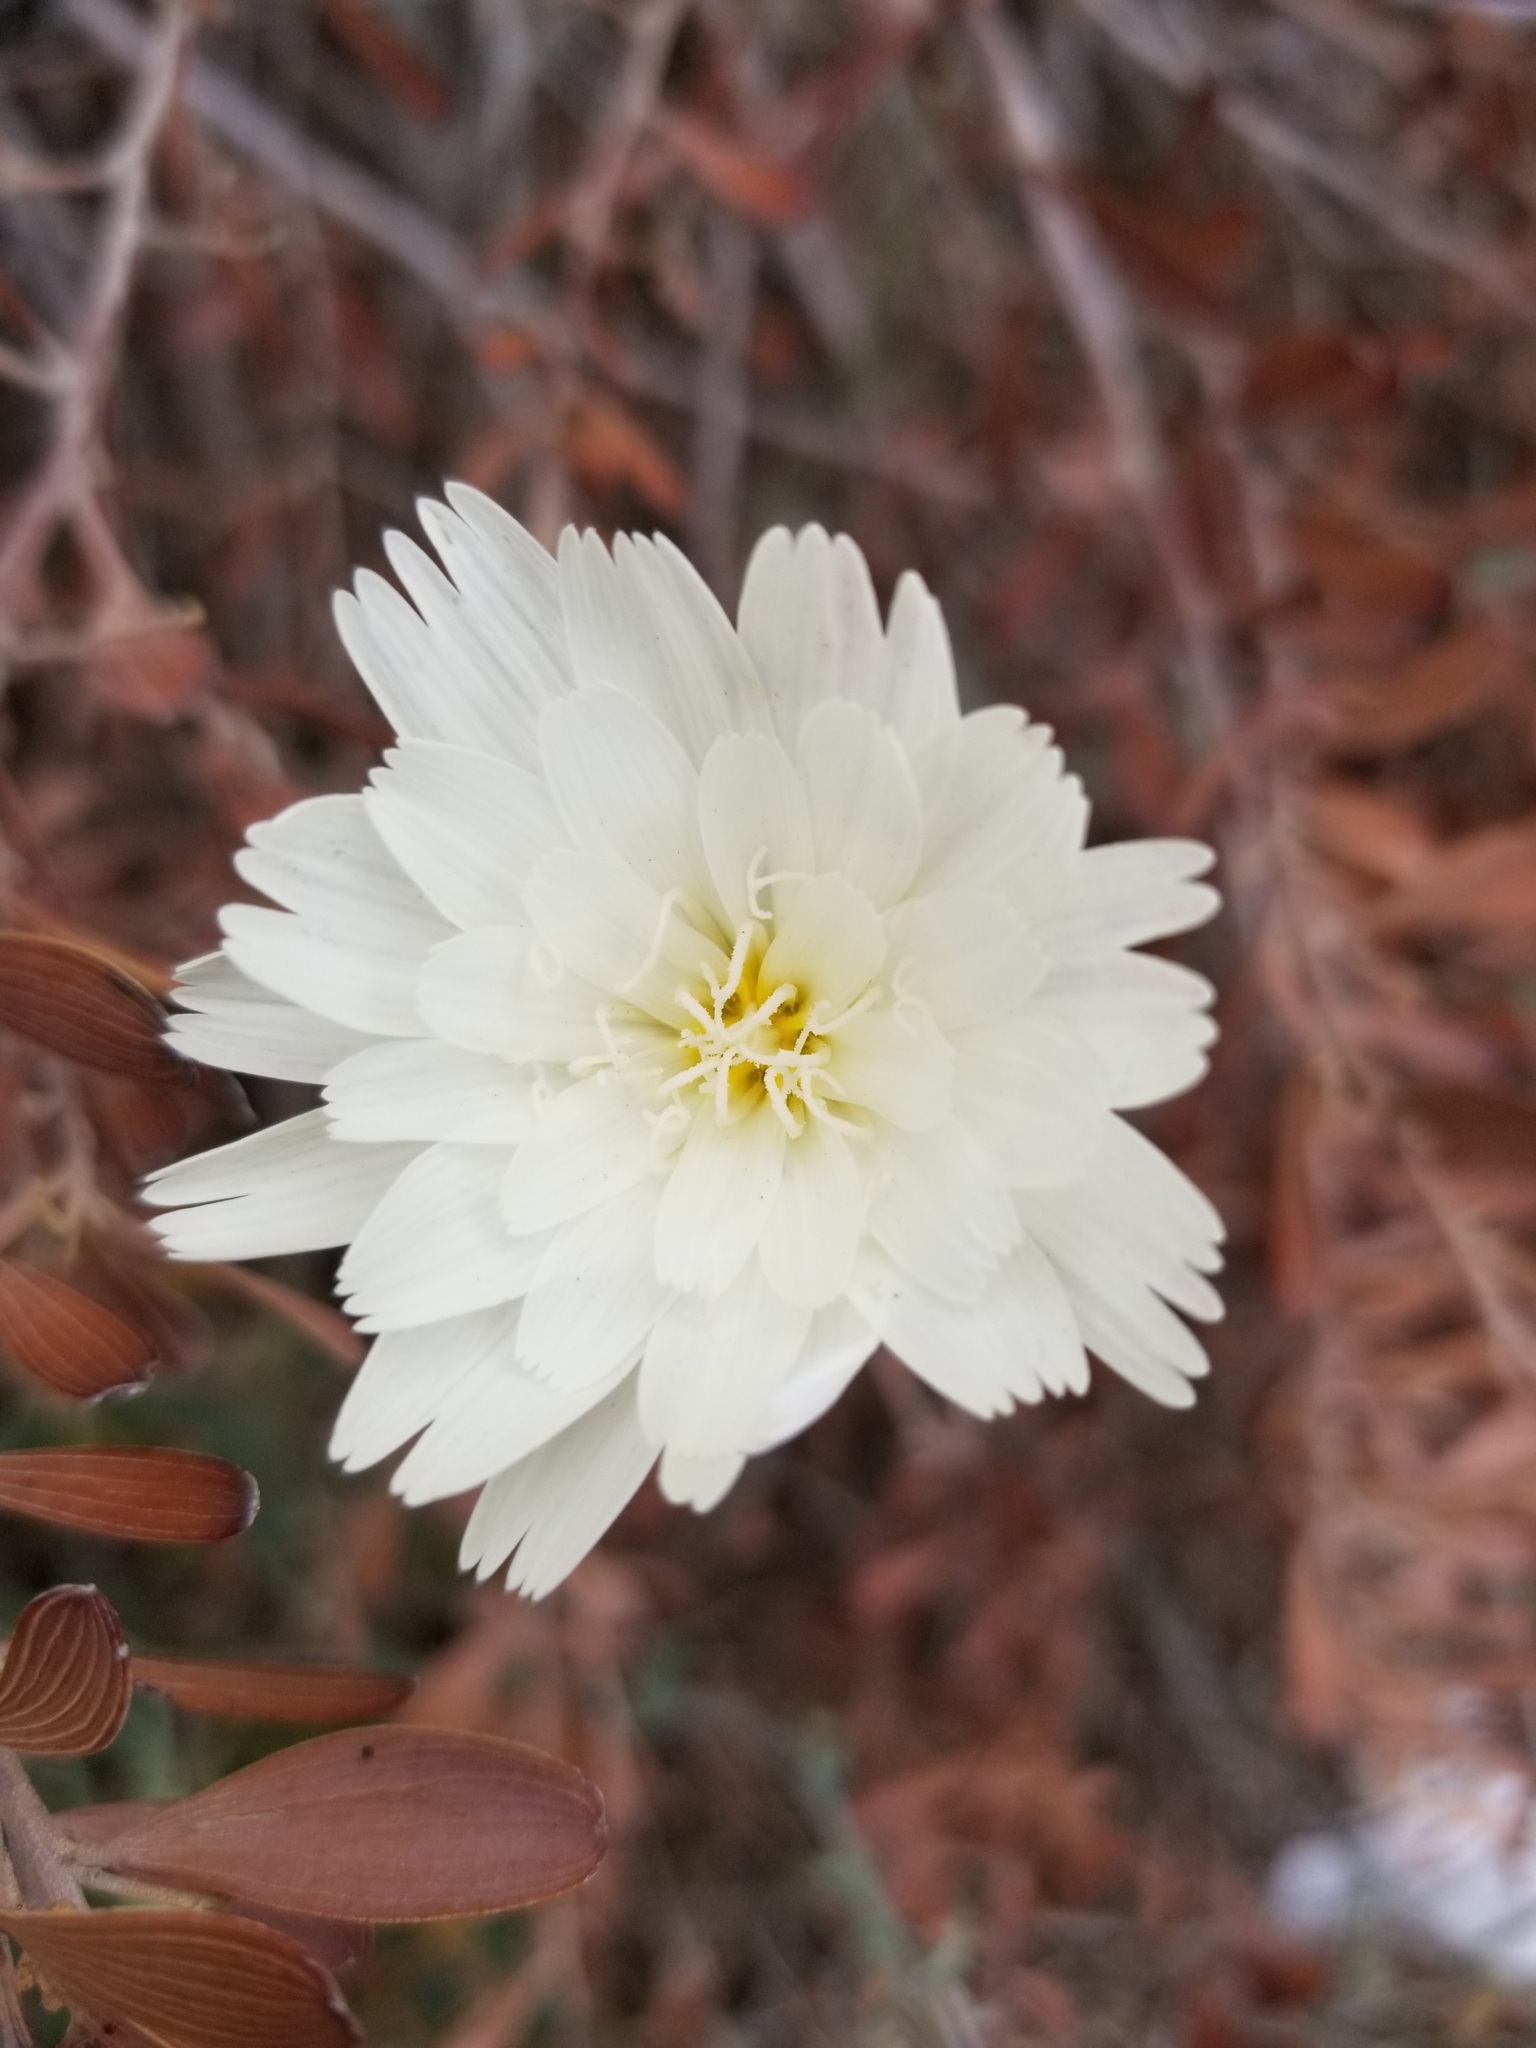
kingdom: Plantae
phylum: Tracheophyta
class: Magnoliopsida
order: Asterales
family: Asteraceae
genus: Rafinesquia
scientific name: Rafinesquia neomexicana
